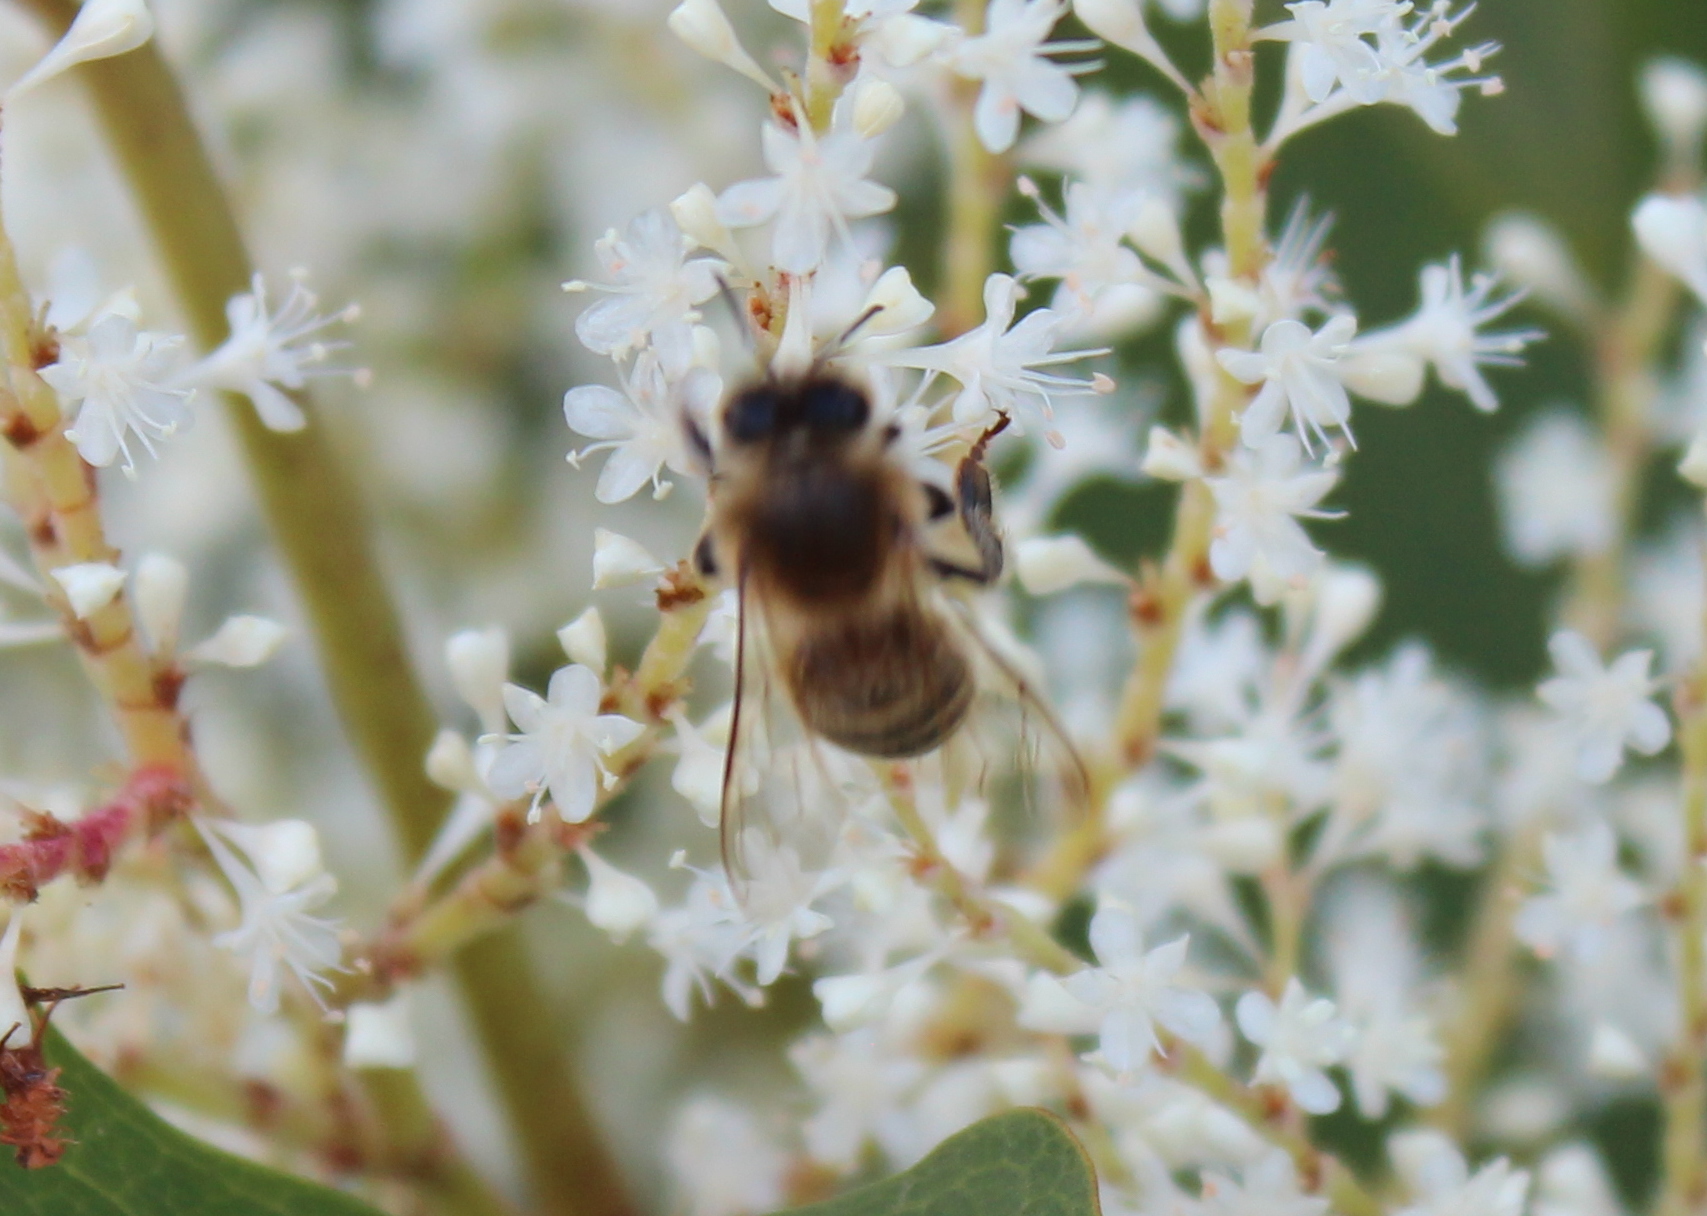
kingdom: Animalia
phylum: Arthropoda
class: Insecta
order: Hymenoptera
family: Apidae
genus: Apis
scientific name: Apis mellifera
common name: Honey bee
